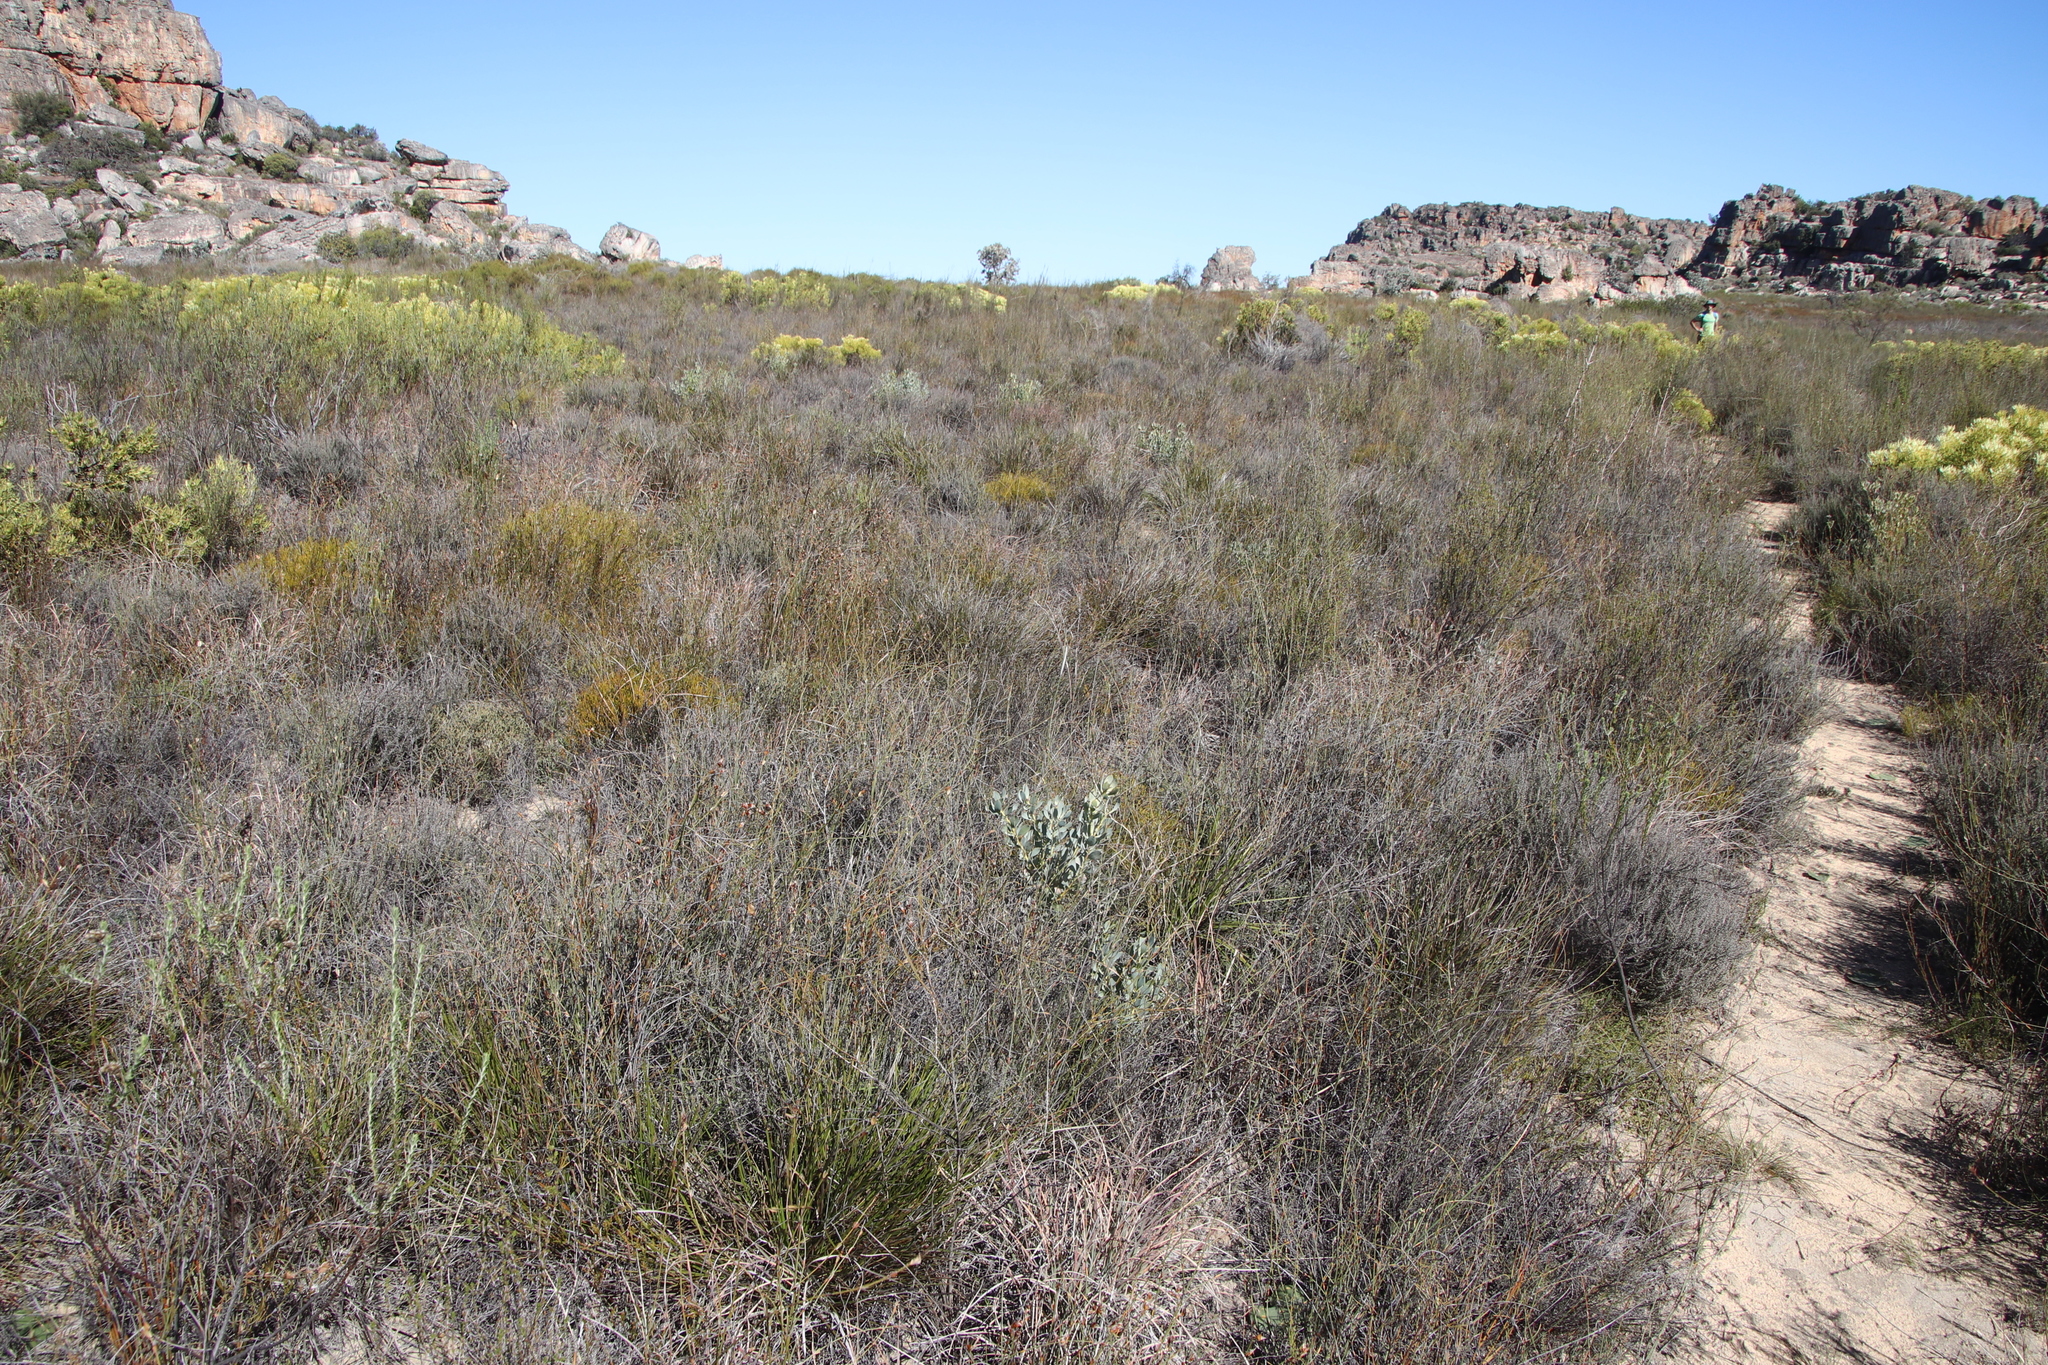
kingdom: Plantae
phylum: Tracheophyta
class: Magnoliopsida
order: Proteales
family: Proteaceae
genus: Leucadendron
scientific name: Leucadendron loranthifolium
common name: Green-flower sunbush
